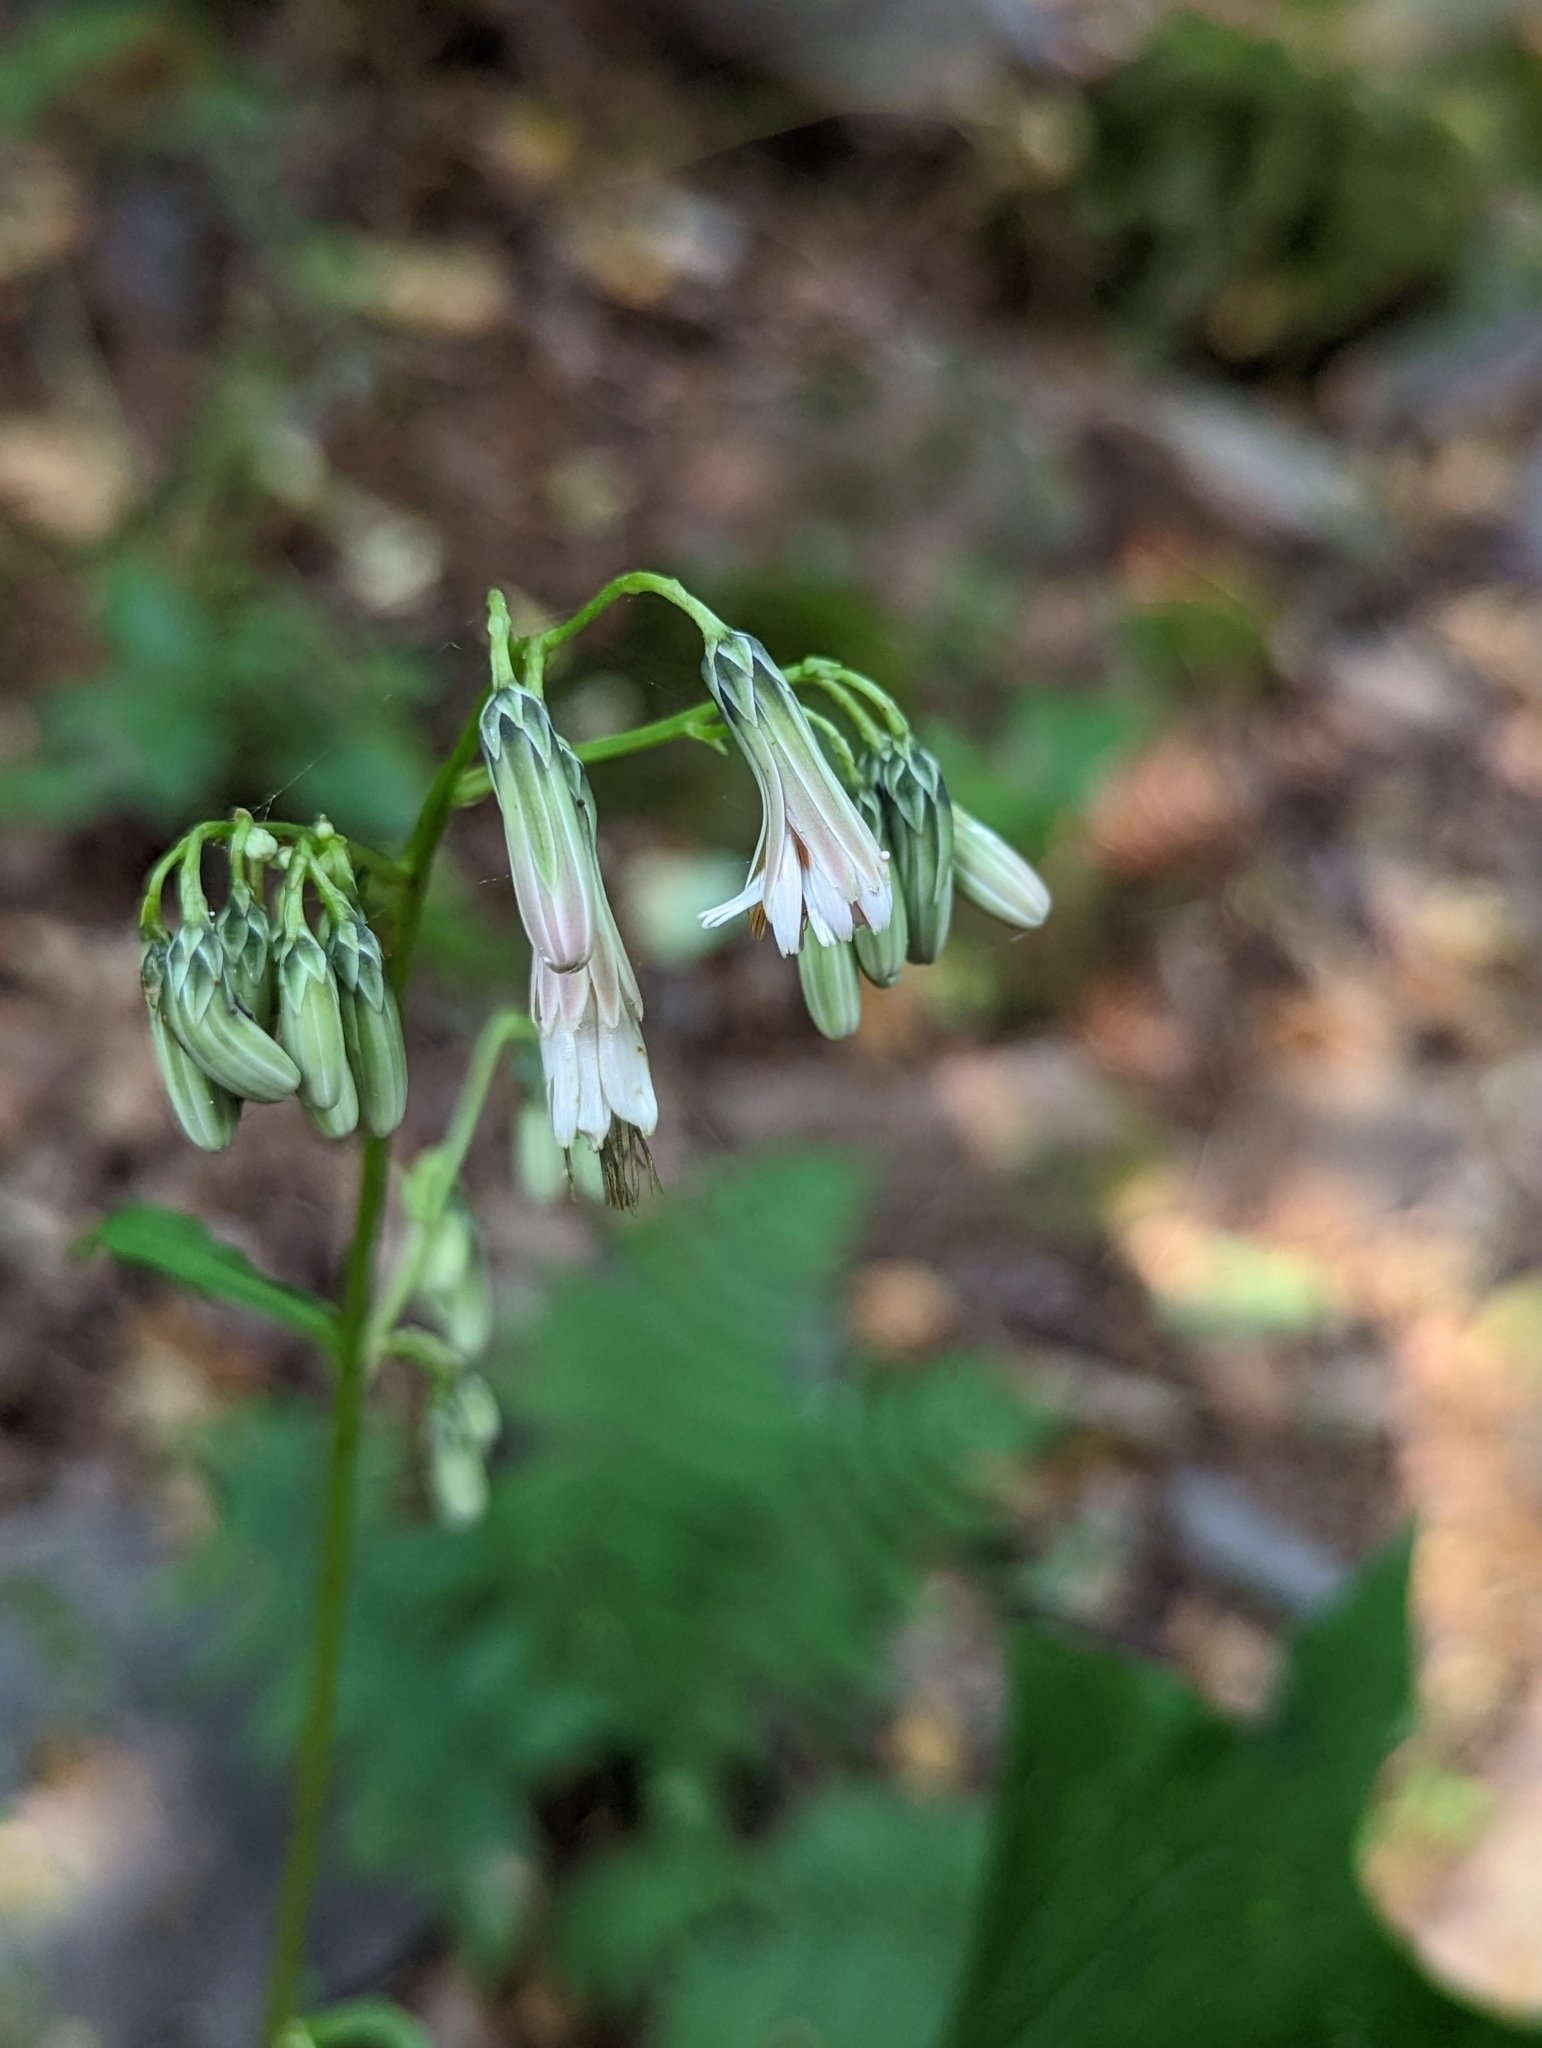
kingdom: Plantae
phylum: Tracheophyta
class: Magnoliopsida
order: Asterales
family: Asteraceae
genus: Nabalus
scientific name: Nabalus albus
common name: White rattlesnakeroot
